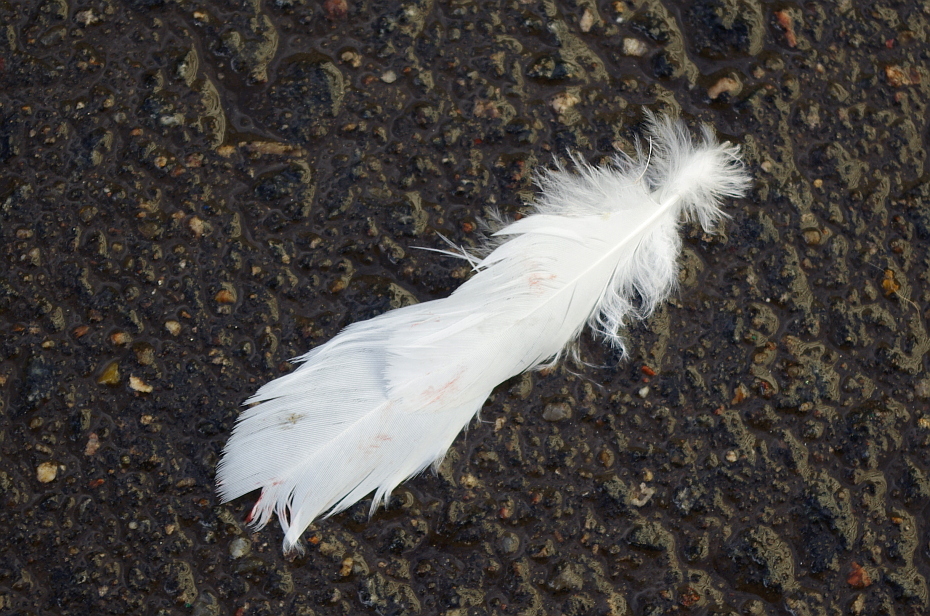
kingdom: Animalia
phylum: Chordata
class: Aves
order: Columbiformes
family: Columbidae
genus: Columba
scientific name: Columba livia
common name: Rock pigeon
